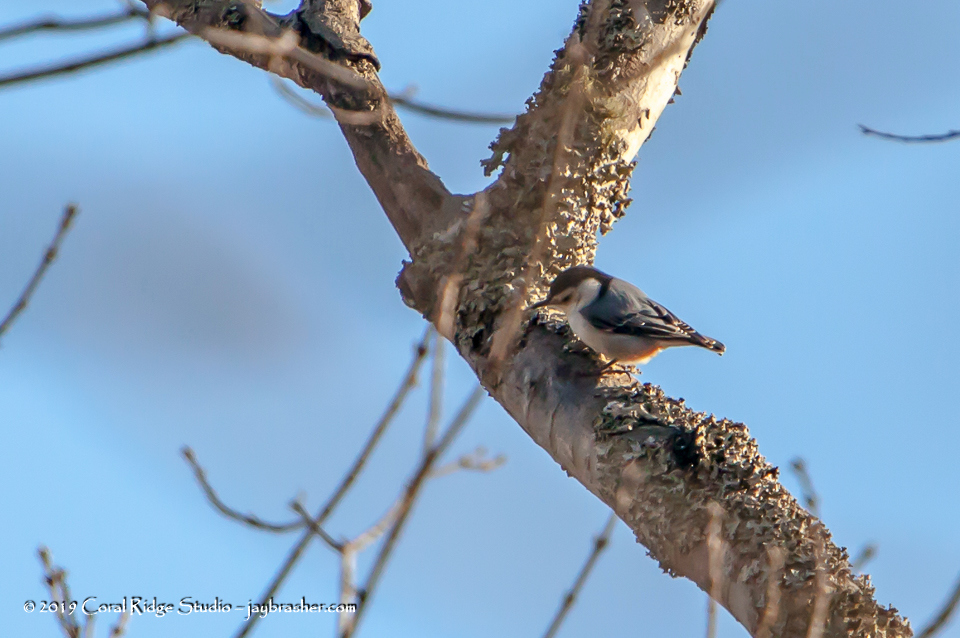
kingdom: Animalia
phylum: Chordata
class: Aves
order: Passeriformes
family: Sittidae
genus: Sitta
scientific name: Sitta carolinensis
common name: White-breasted nuthatch
